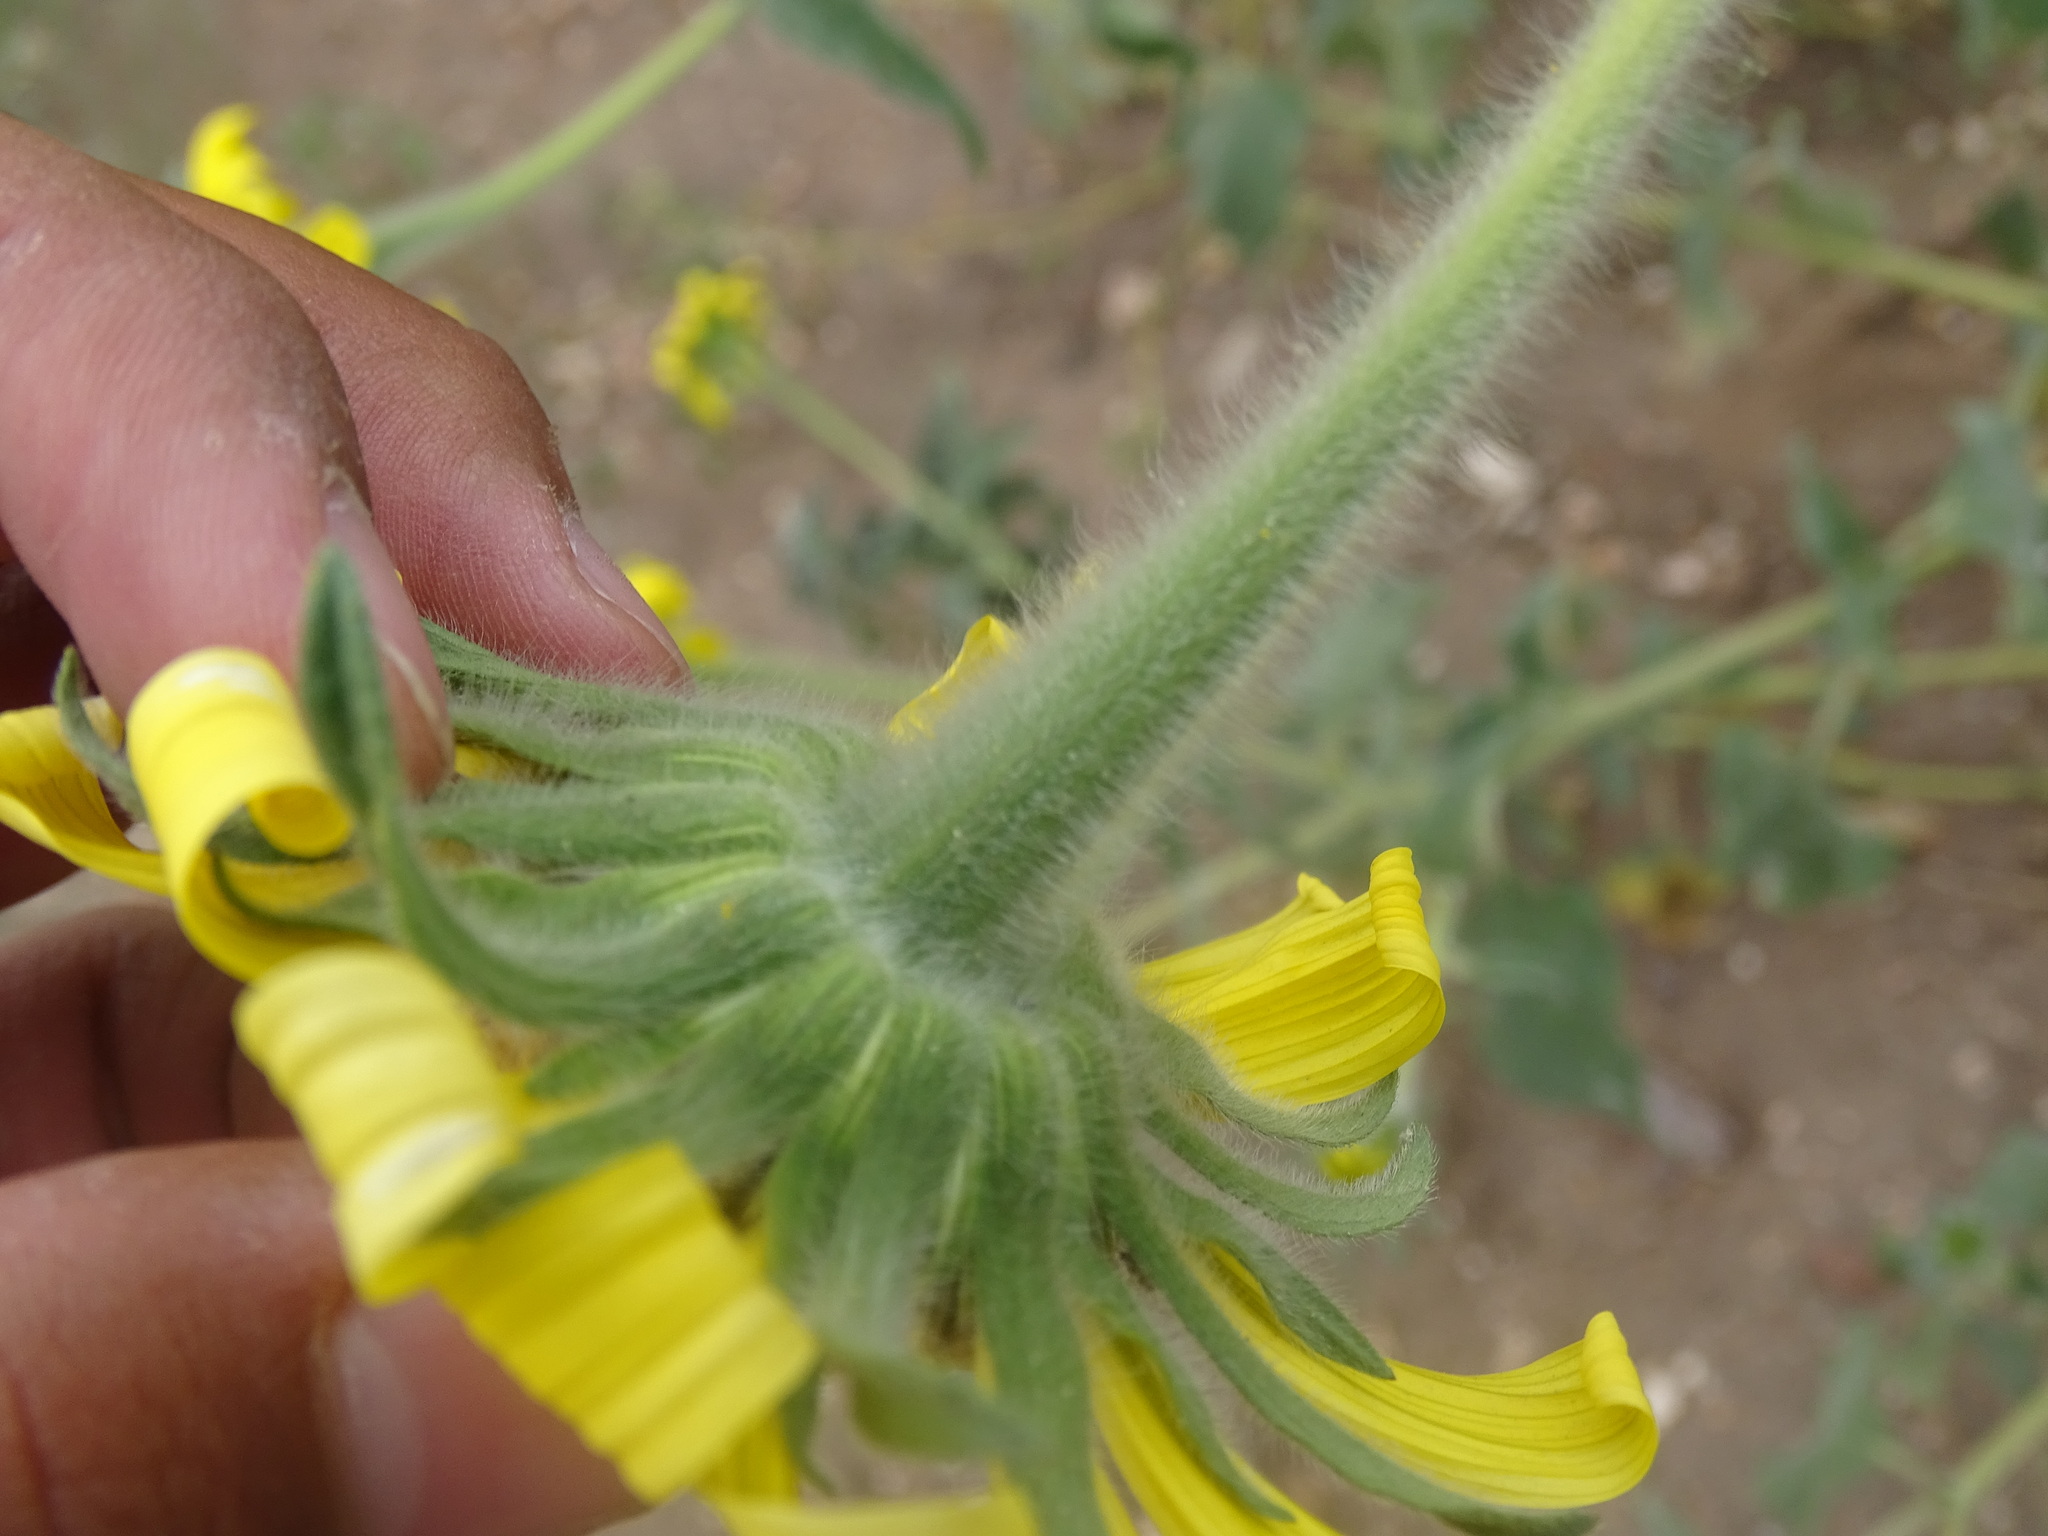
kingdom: Plantae
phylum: Tracheophyta
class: Magnoliopsida
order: Asterales
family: Asteraceae
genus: Tithonia
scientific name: Tithonia tubaeformis
